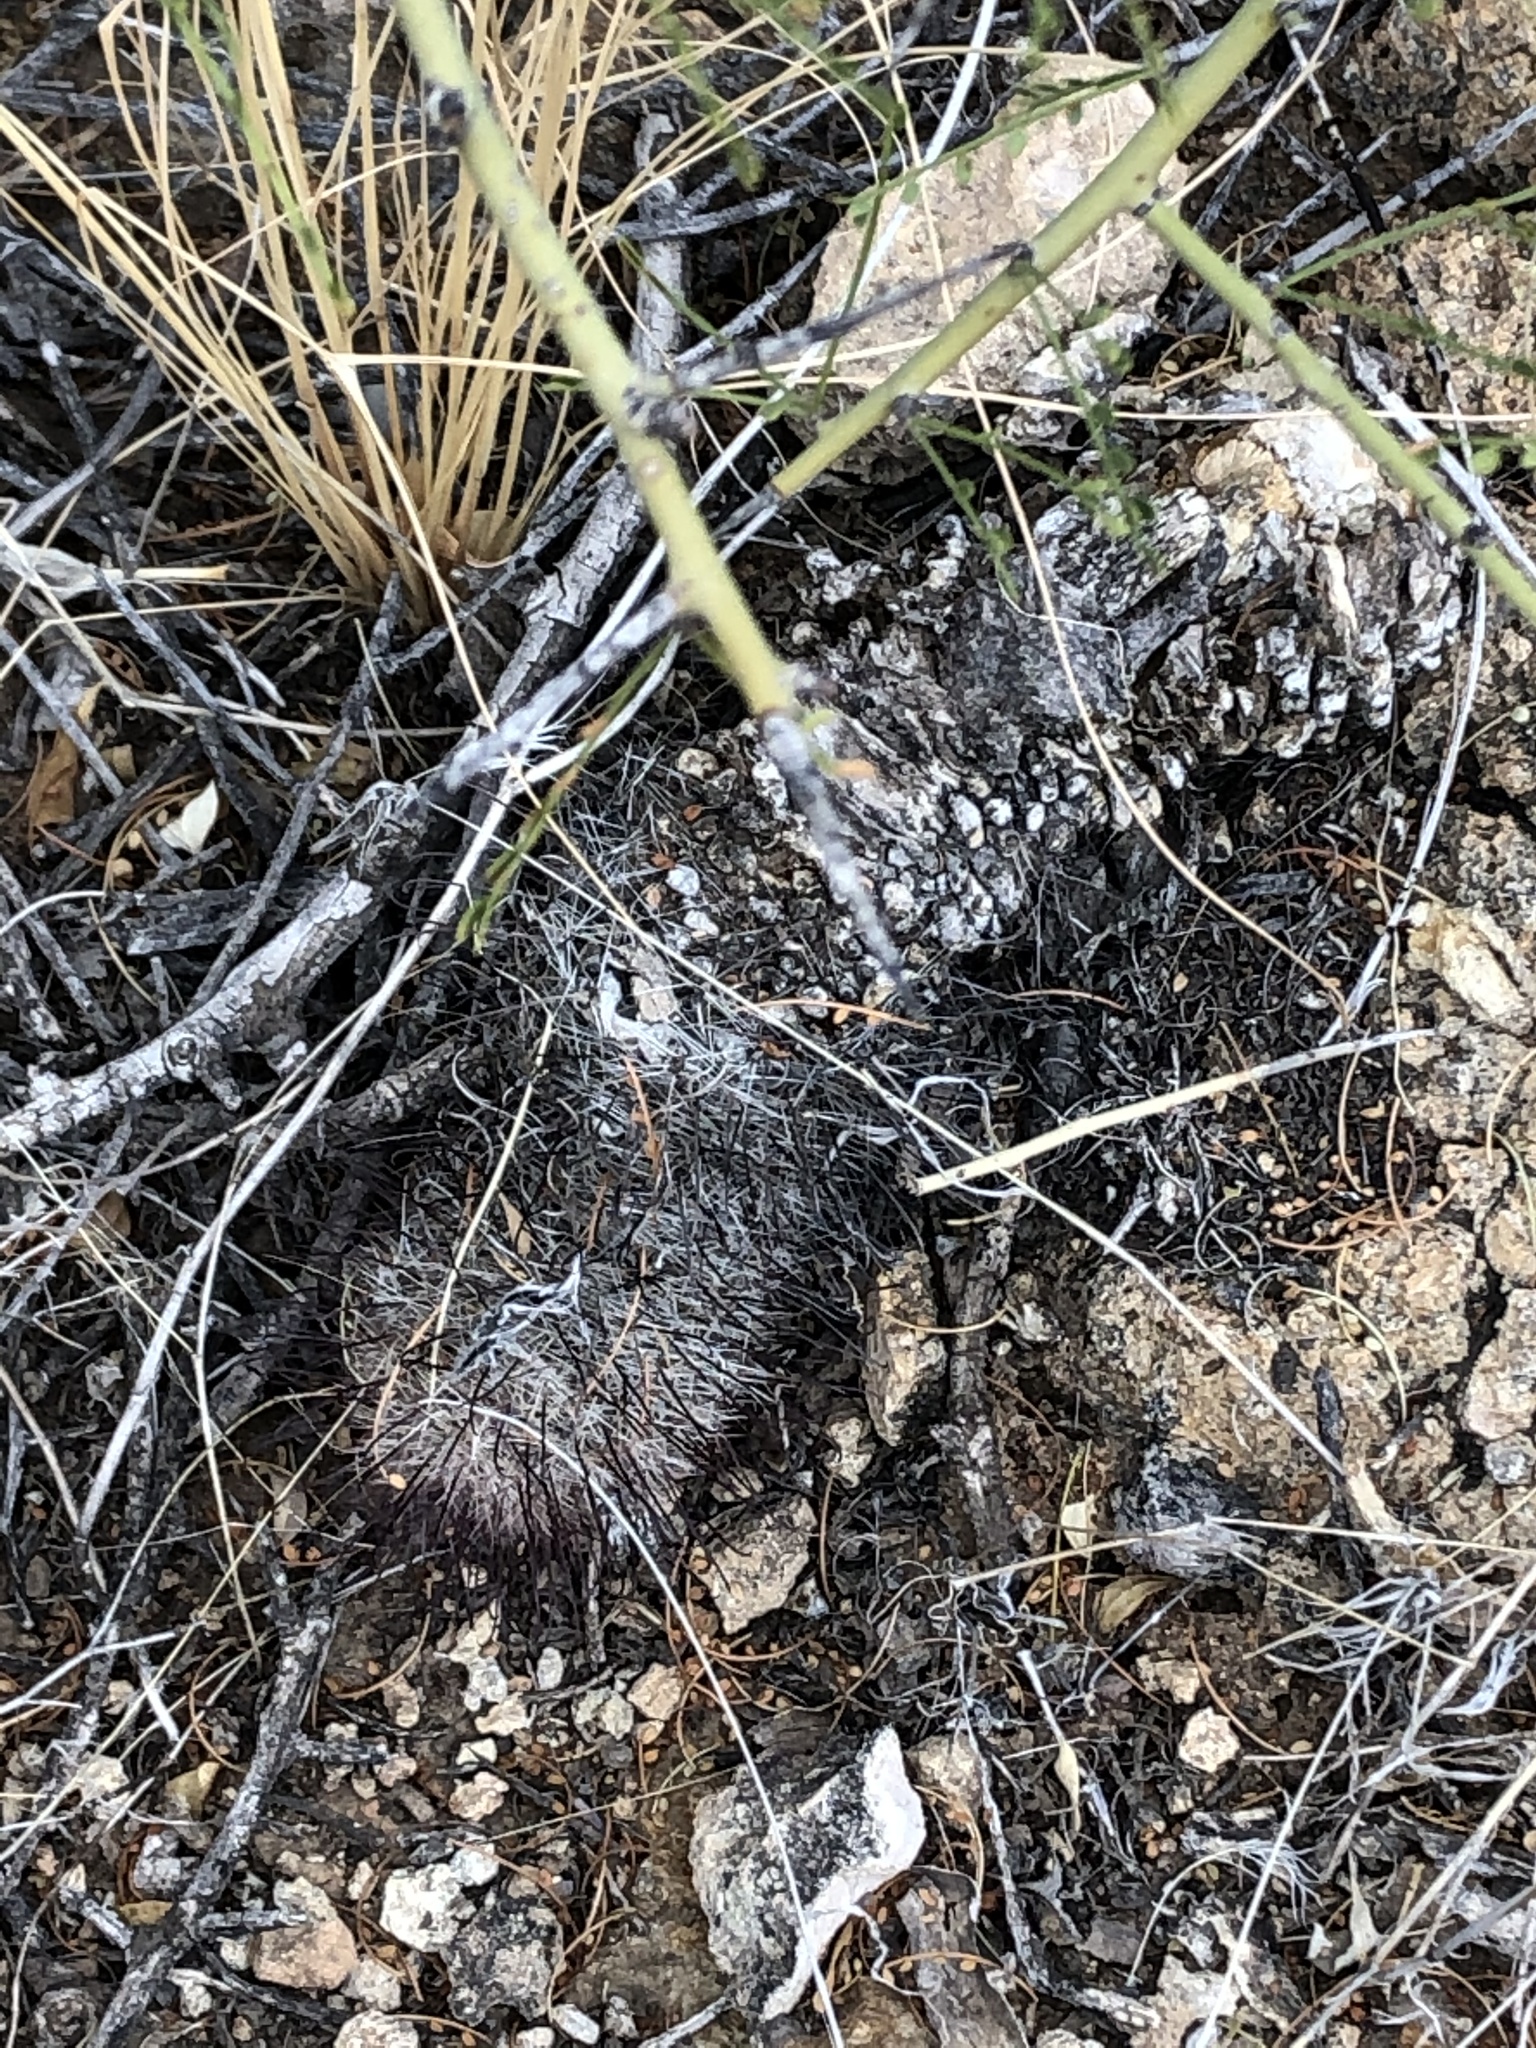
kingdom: Plantae
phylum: Tracheophyta
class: Magnoliopsida
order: Caryophyllales
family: Cactaceae
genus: Cochemiea
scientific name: Cochemiea grahamii
